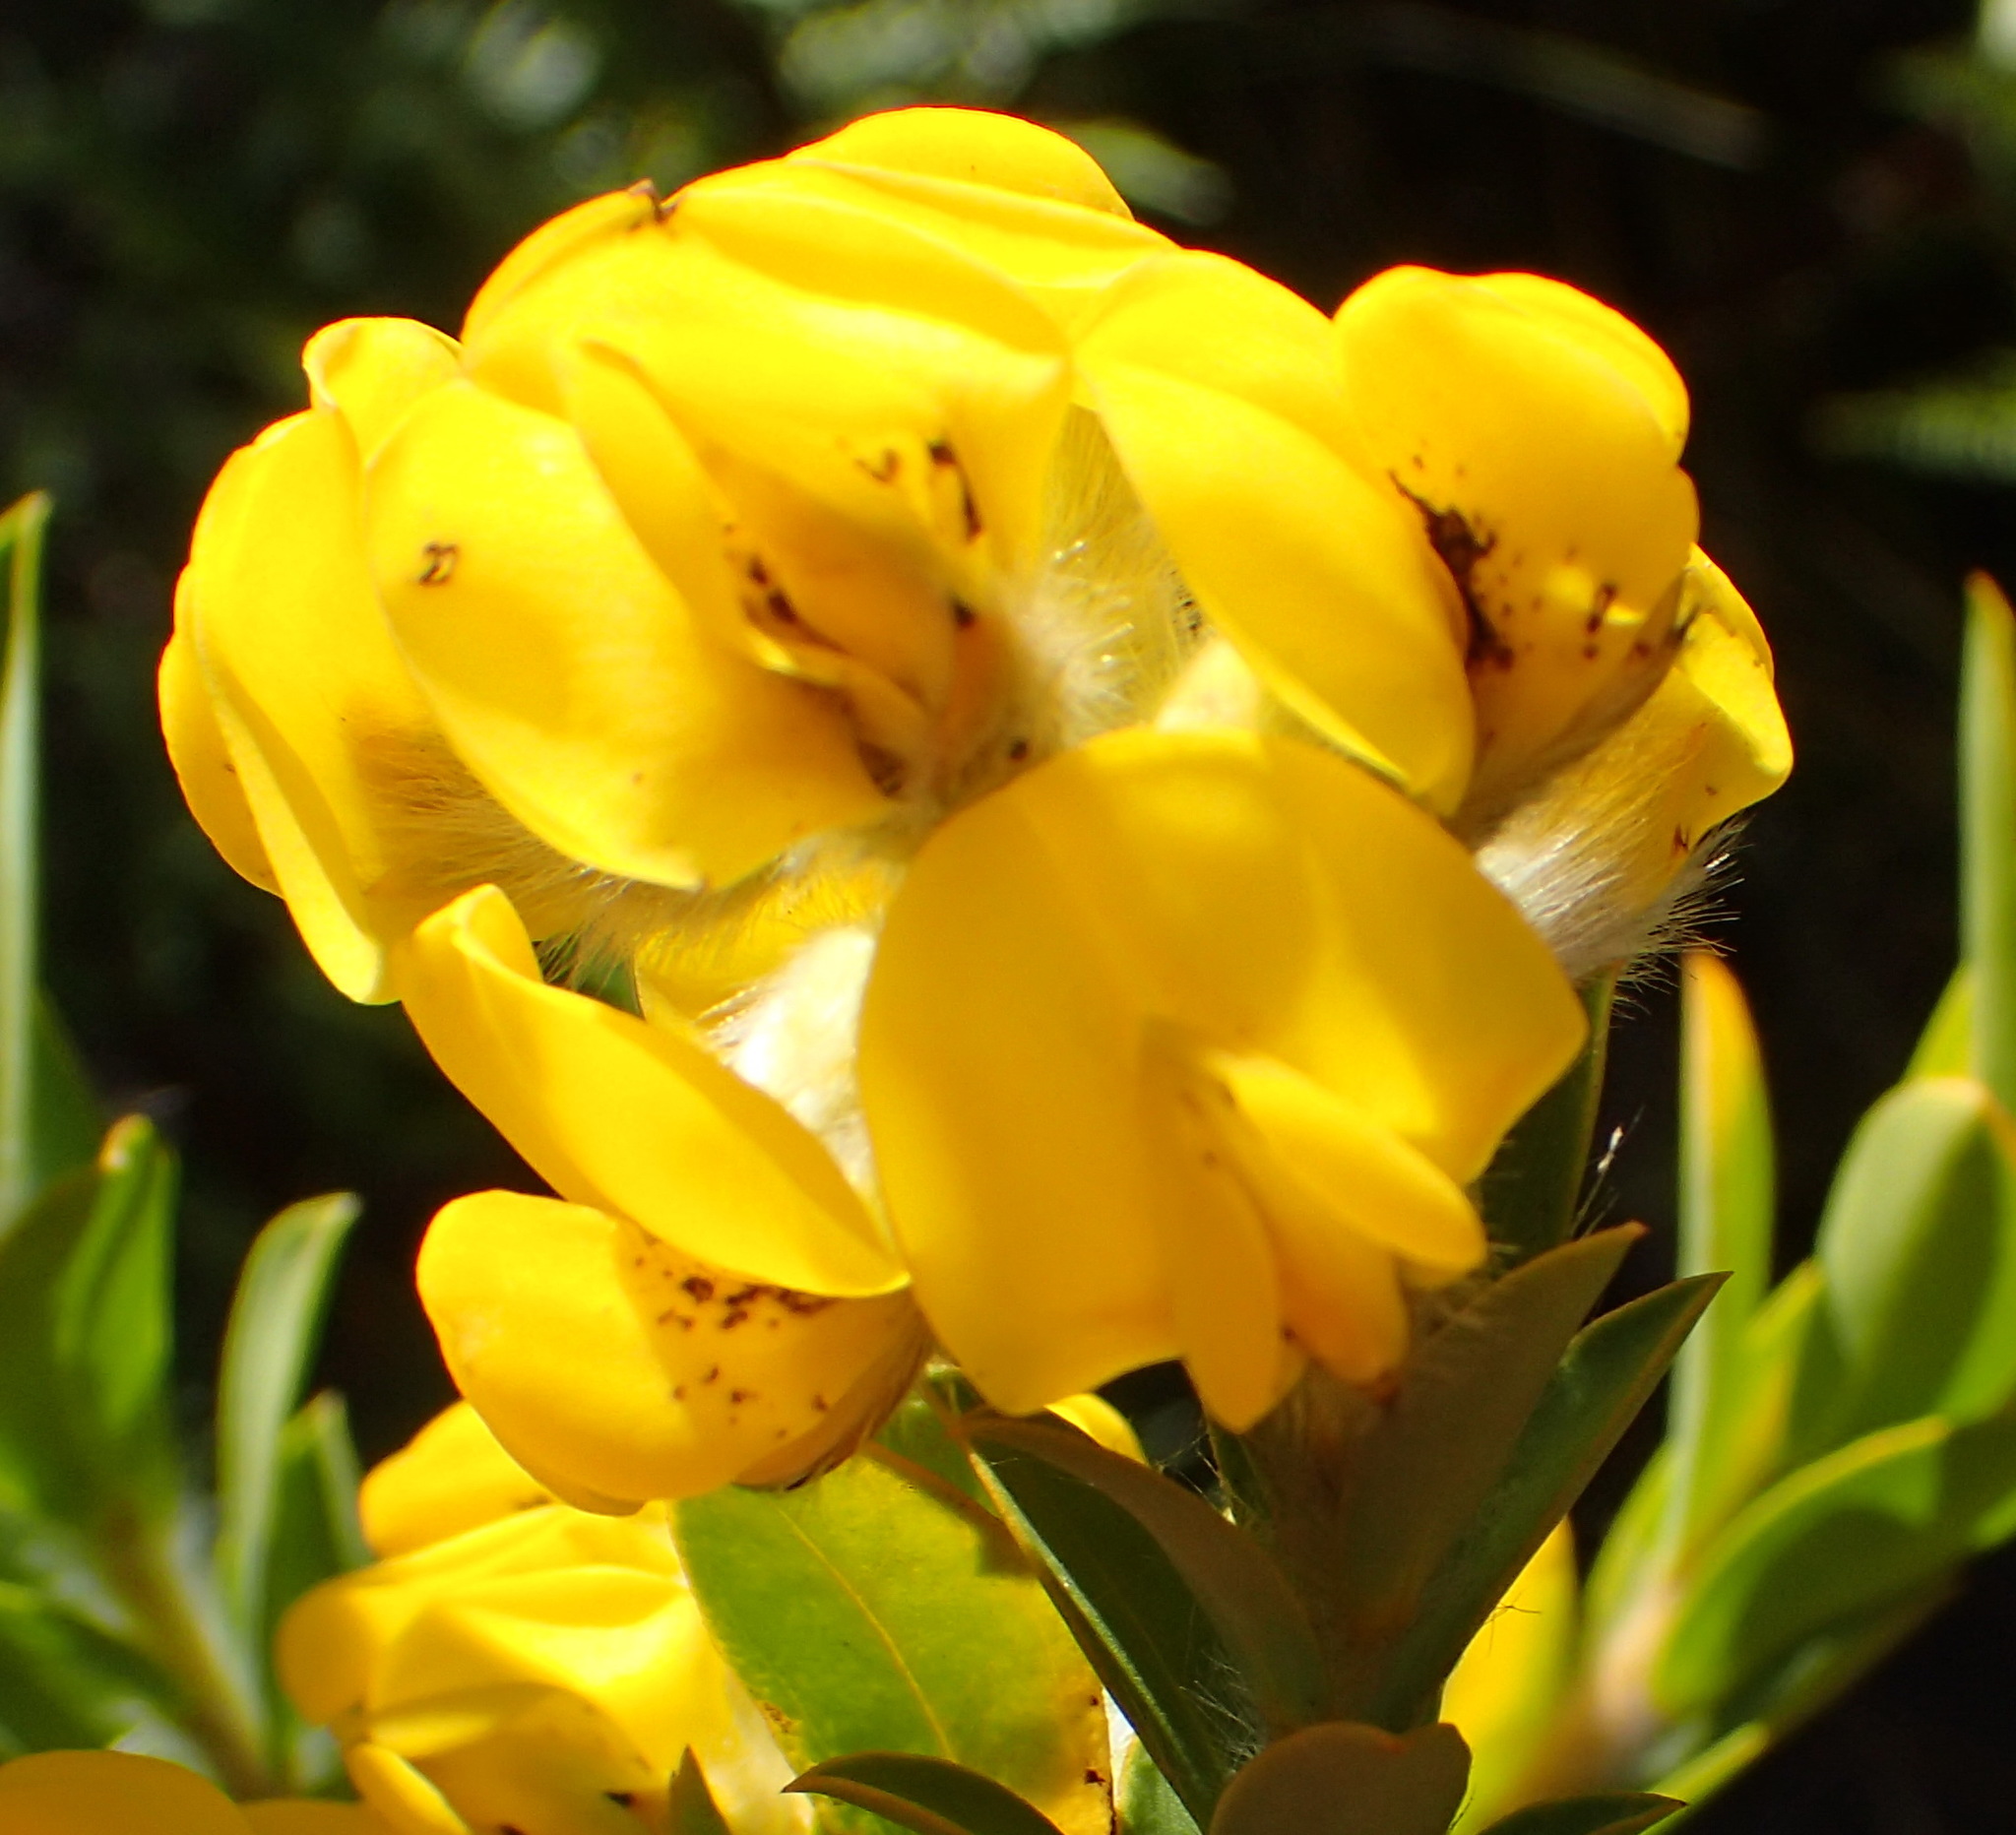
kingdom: Plantae
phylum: Tracheophyta
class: Magnoliopsida
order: Fabales
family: Fabaceae
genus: Liparia
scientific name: Liparia hirsuta
